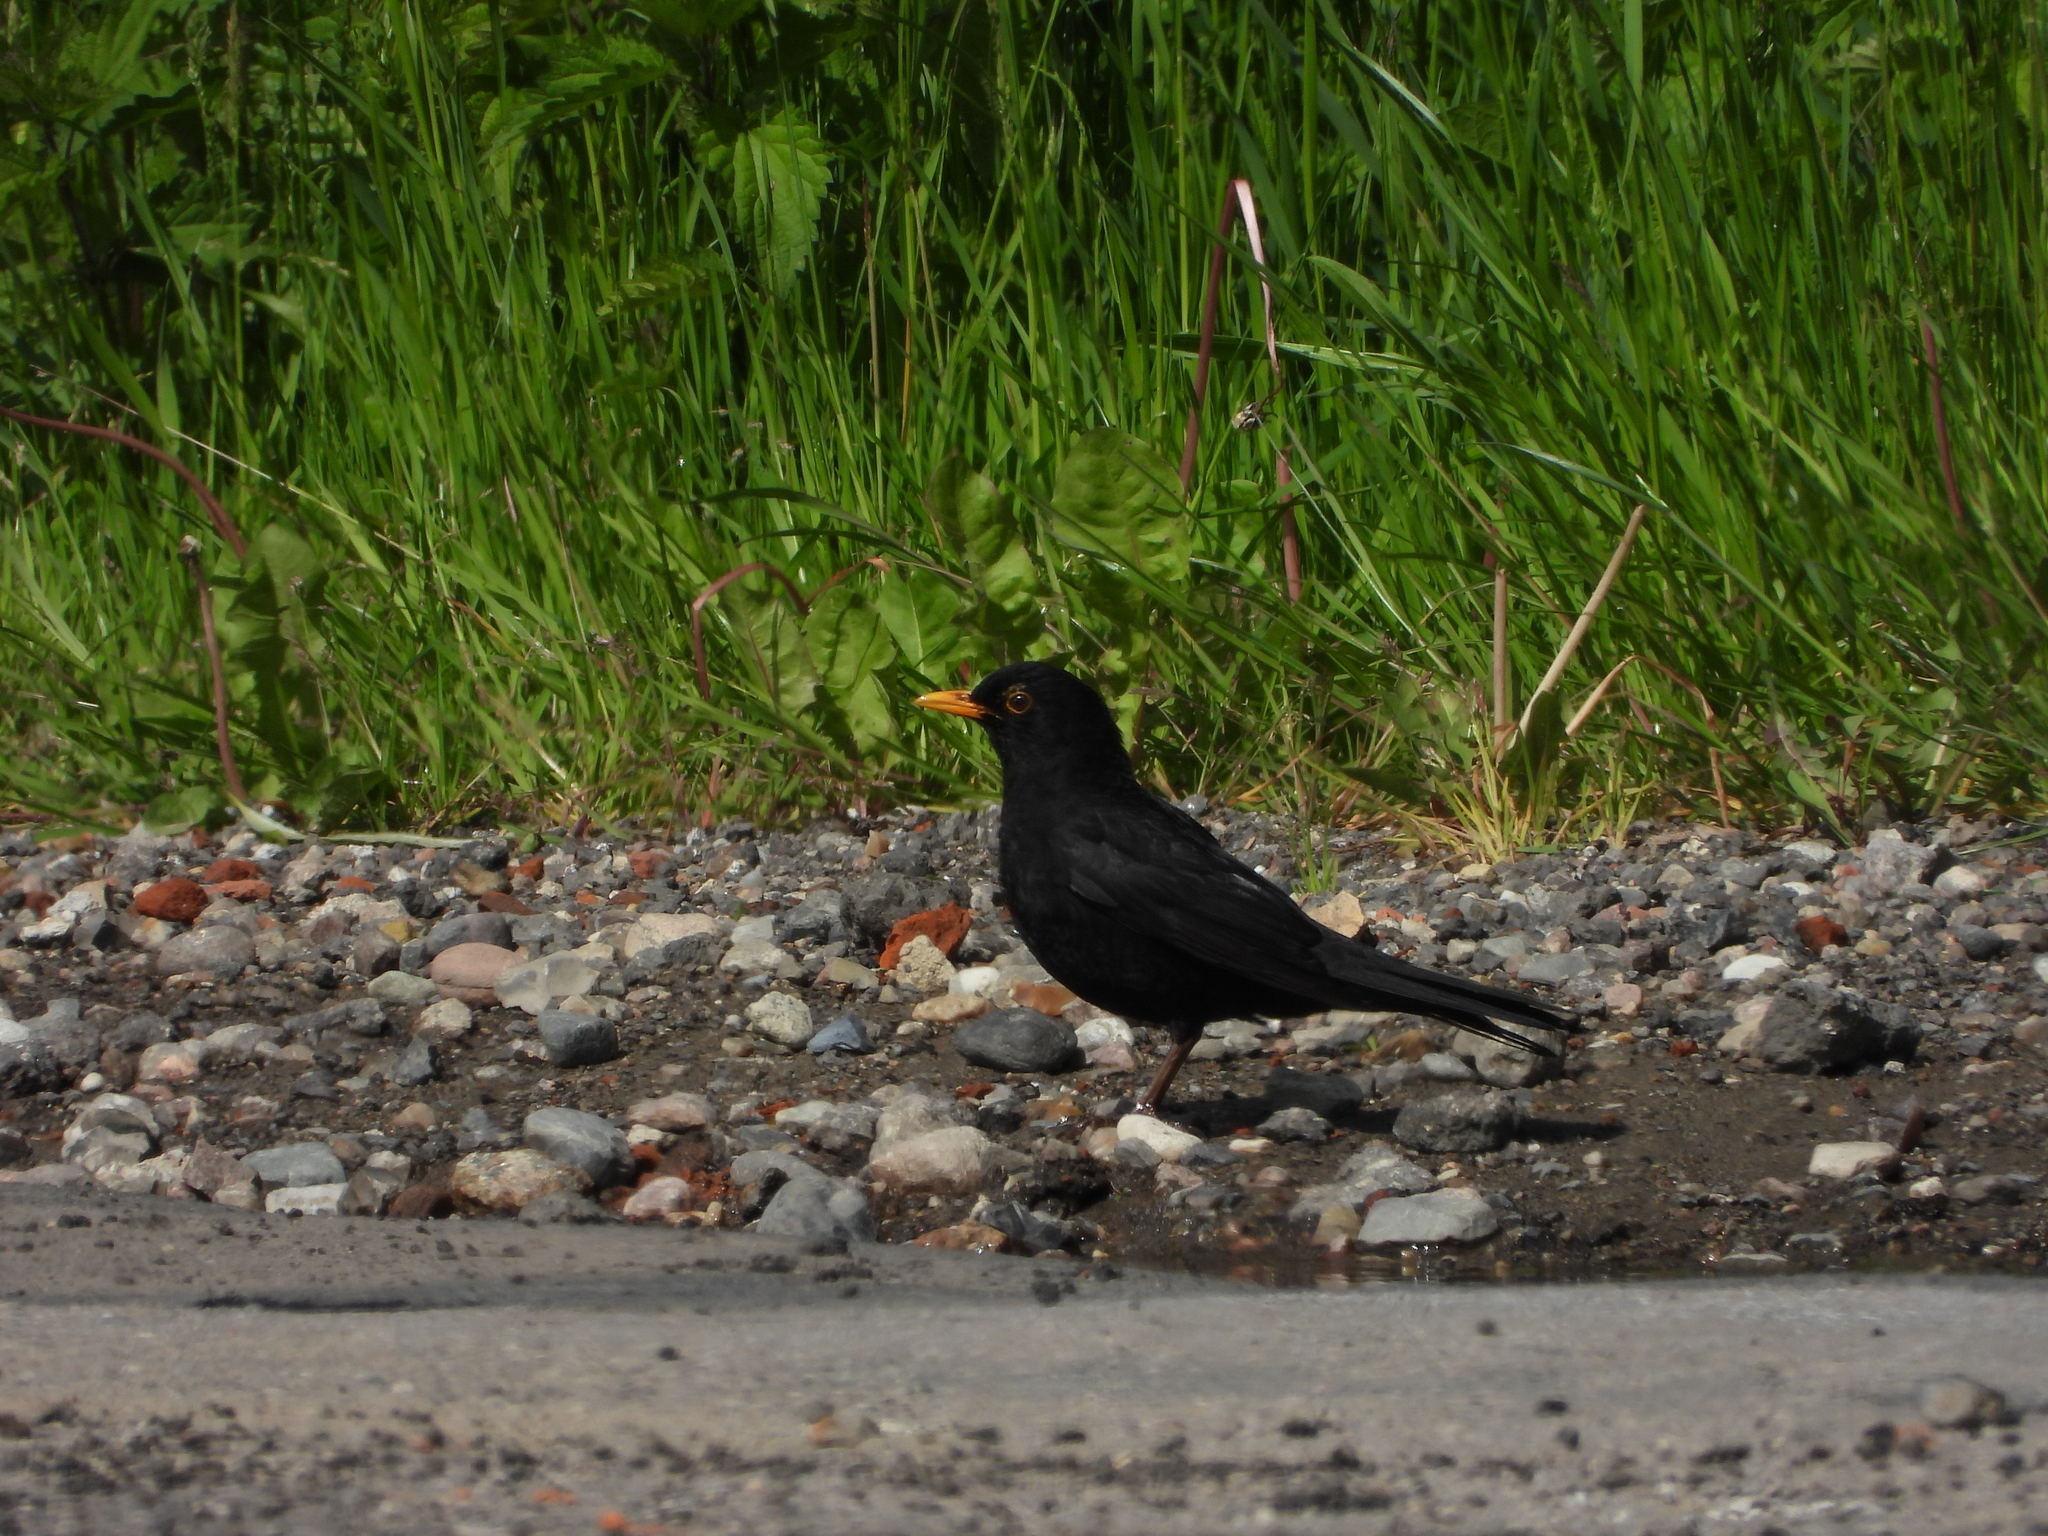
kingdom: Animalia
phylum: Chordata
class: Aves
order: Passeriformes
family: Turdidae
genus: Turdus
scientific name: Turdus merula
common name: Common blackbird
